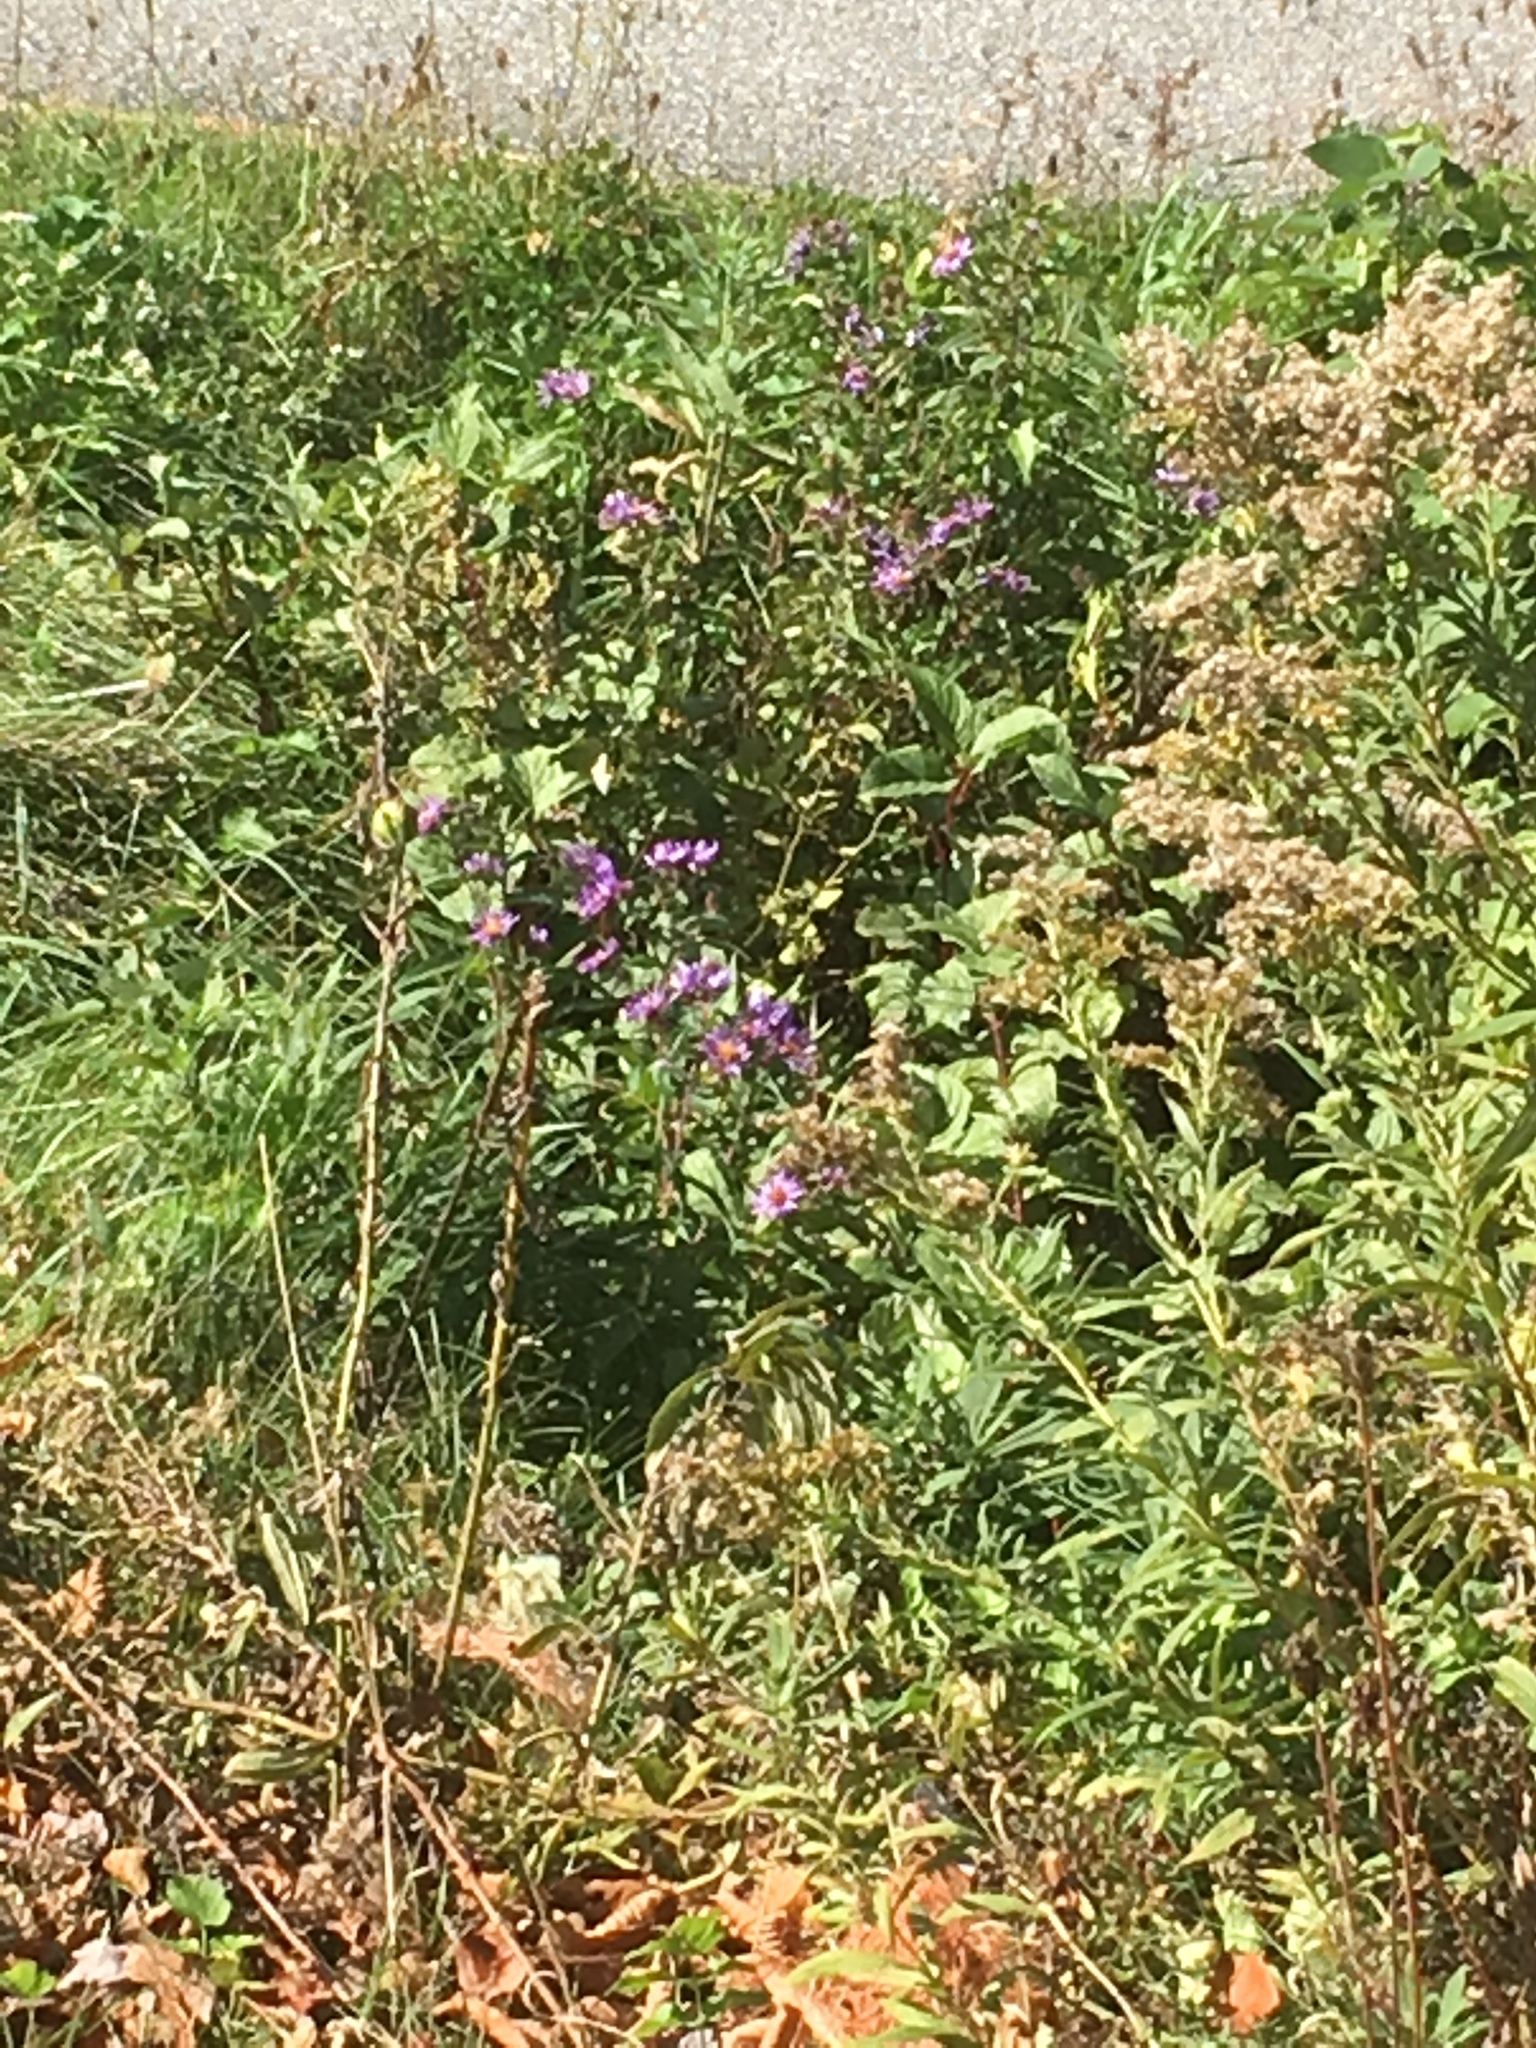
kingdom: Plantae
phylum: Tracheophyta
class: Magnoliopsida
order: Asterales
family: Asteraceae
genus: Symphyotrichum
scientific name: Symphyotrichum novae-angliae
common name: Michaelmas daisy
